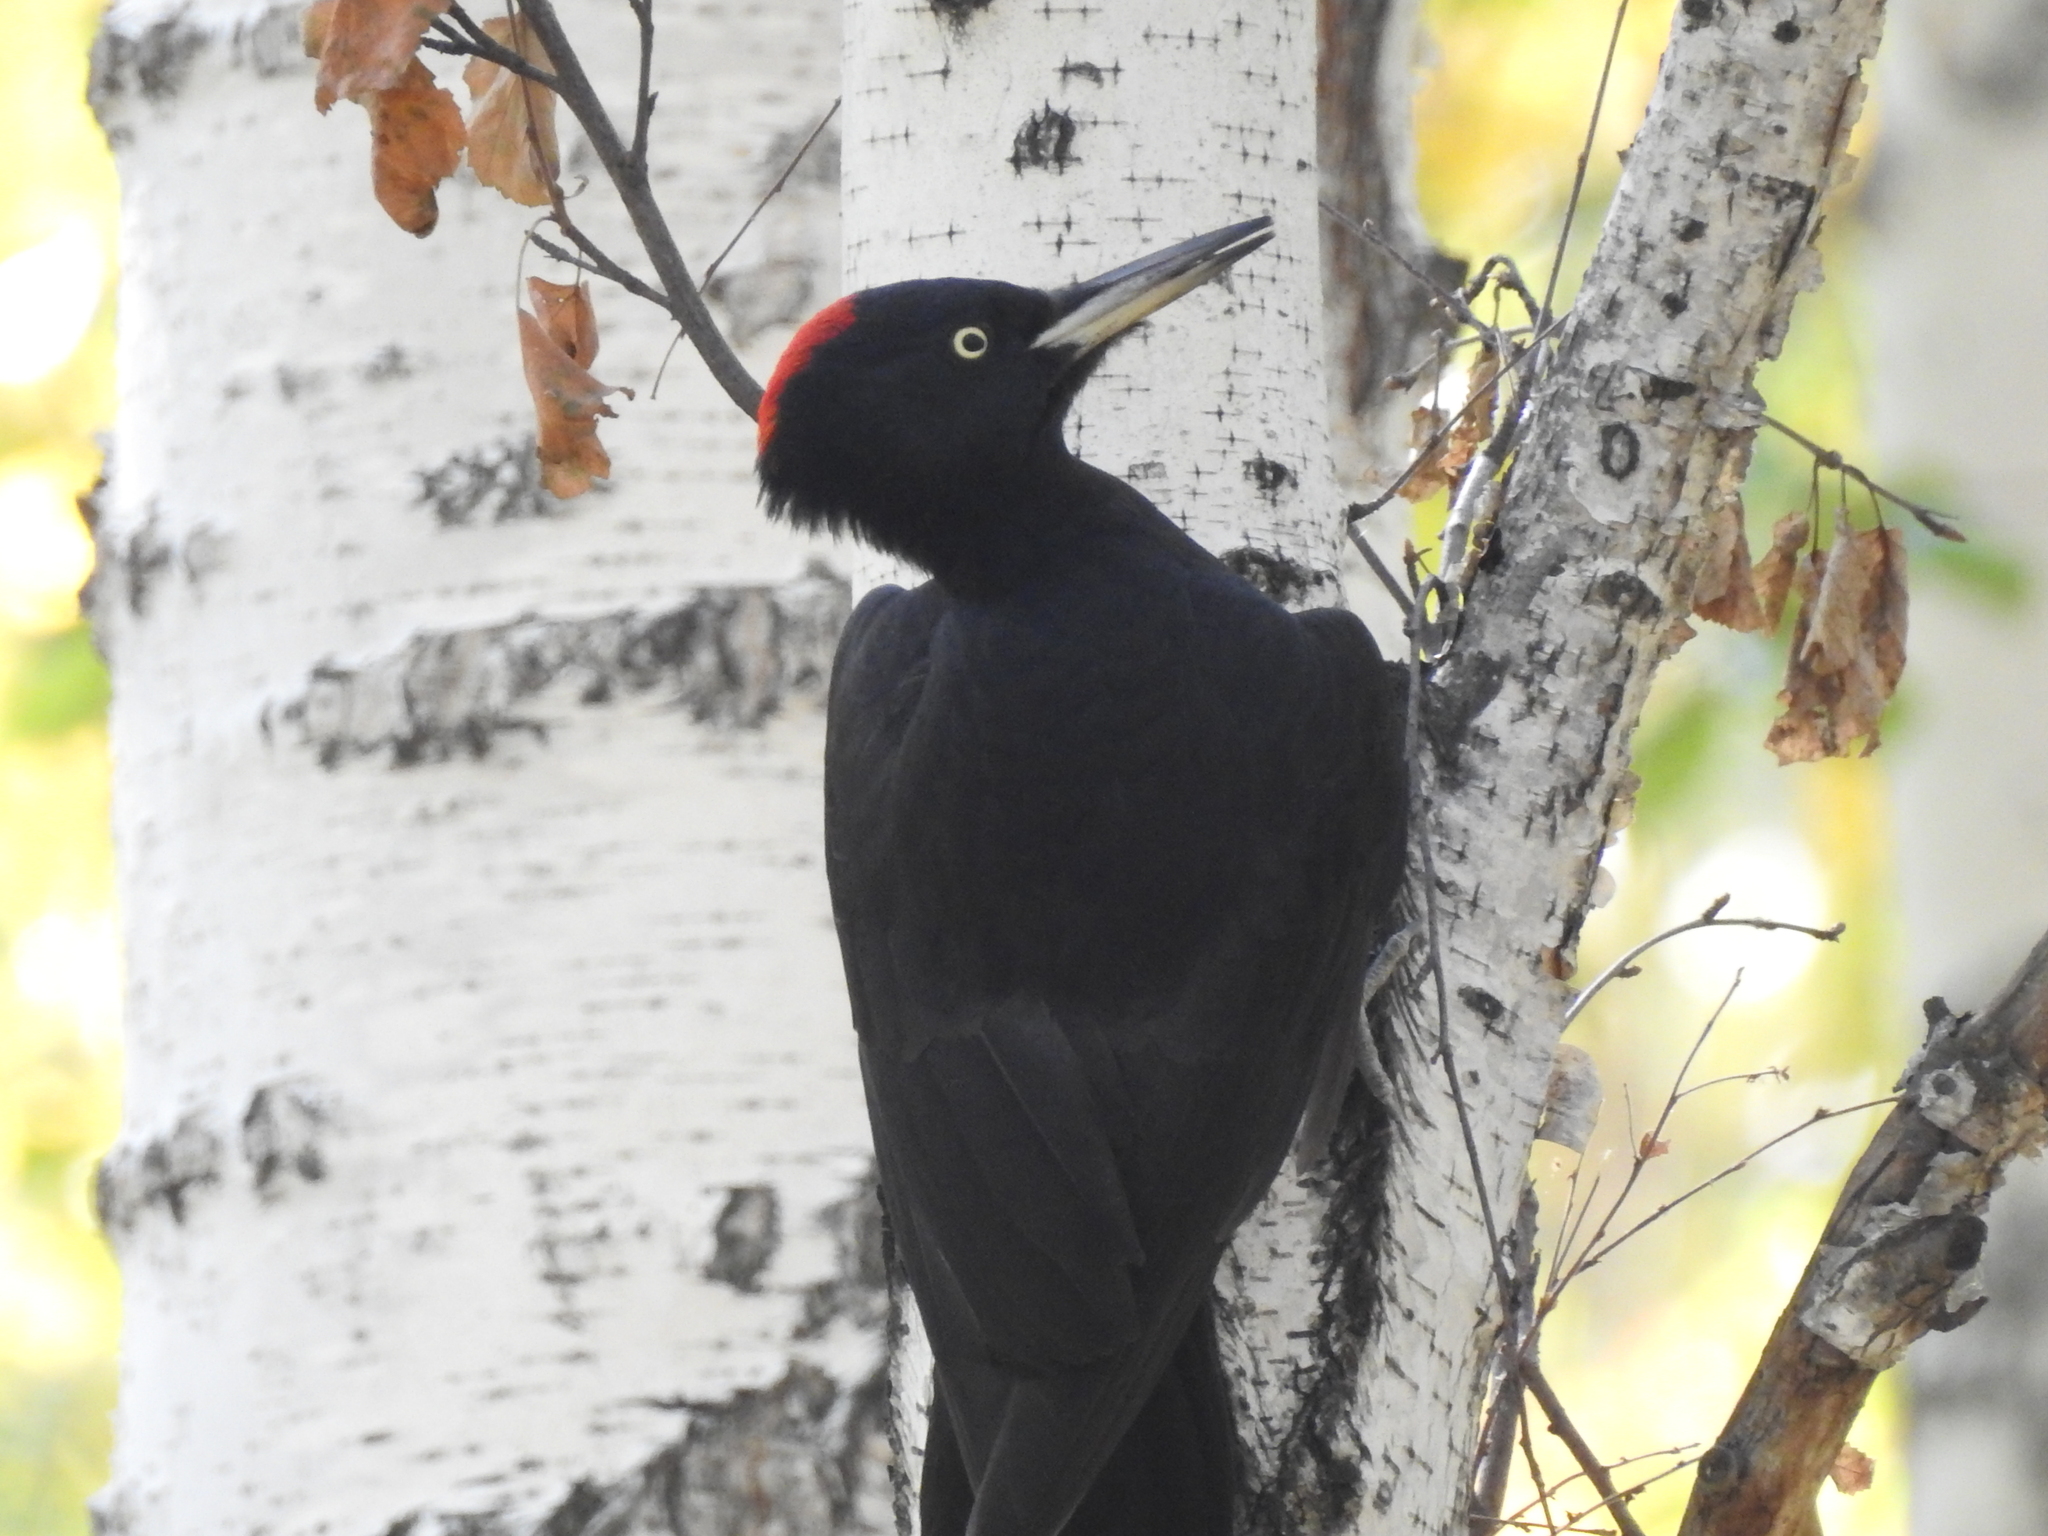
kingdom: Animalia
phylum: Chordata
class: Aves
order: Piciformes
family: Picidae
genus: Dryocopus
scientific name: Dryocopus martius
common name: Black woodpecker
